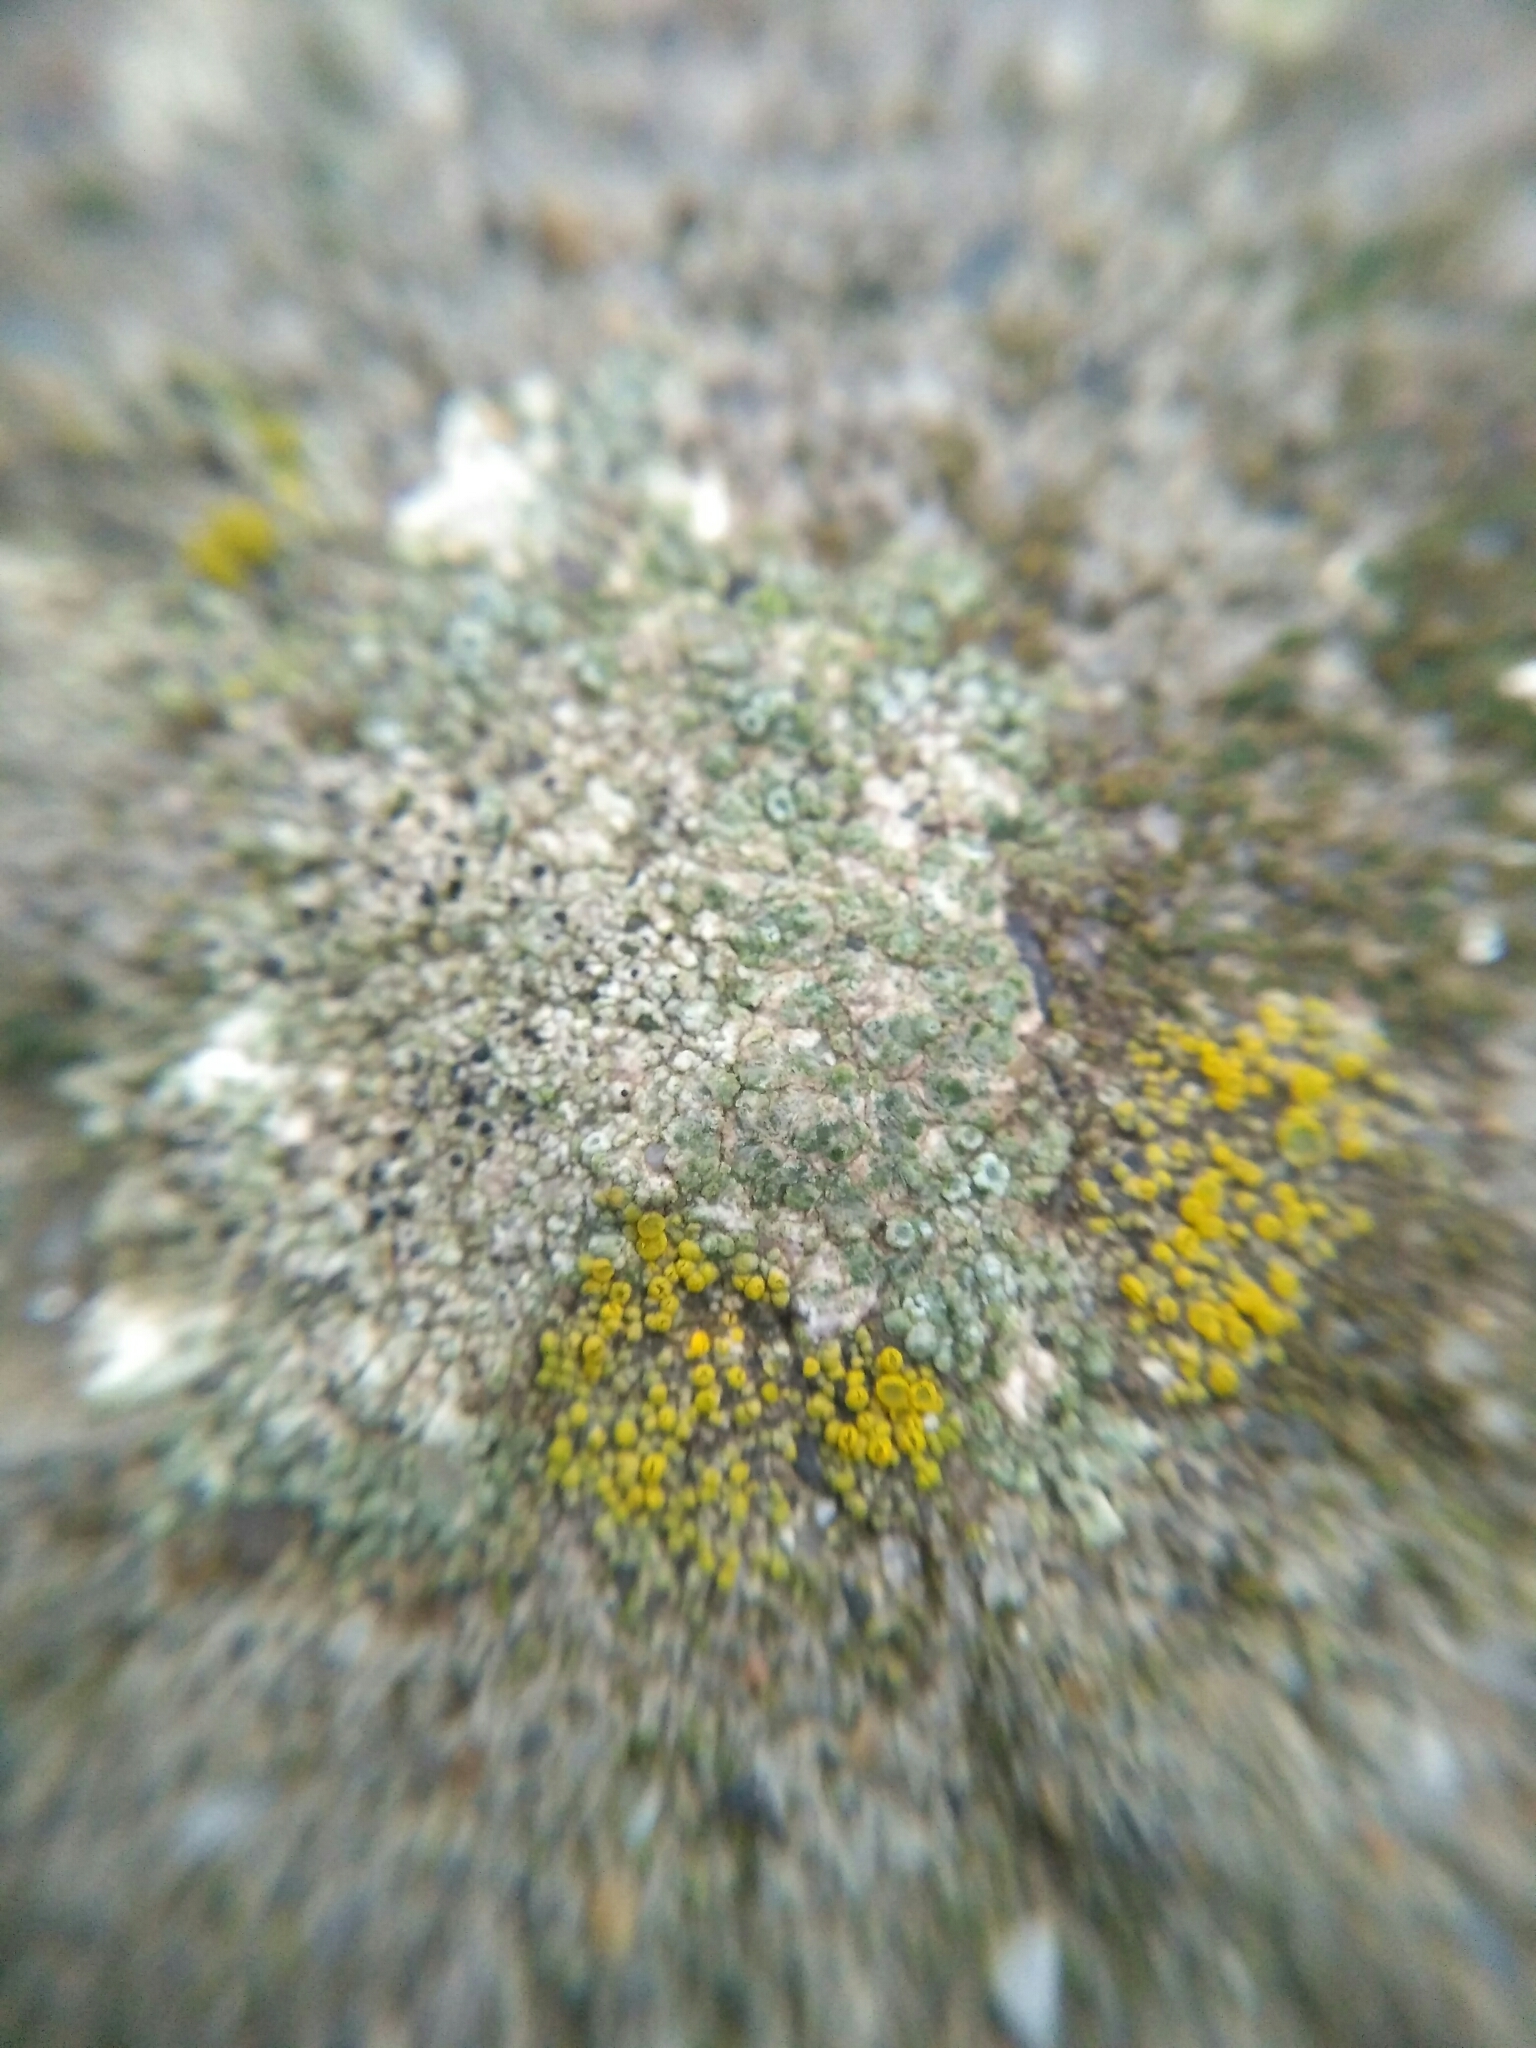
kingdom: Fungi
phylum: Ascomycota
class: Candelariomycetes
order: Candelariales
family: Candelariaceae
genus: Candelariella
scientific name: Candelariella aurella
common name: Hidden goldspeck lichen
